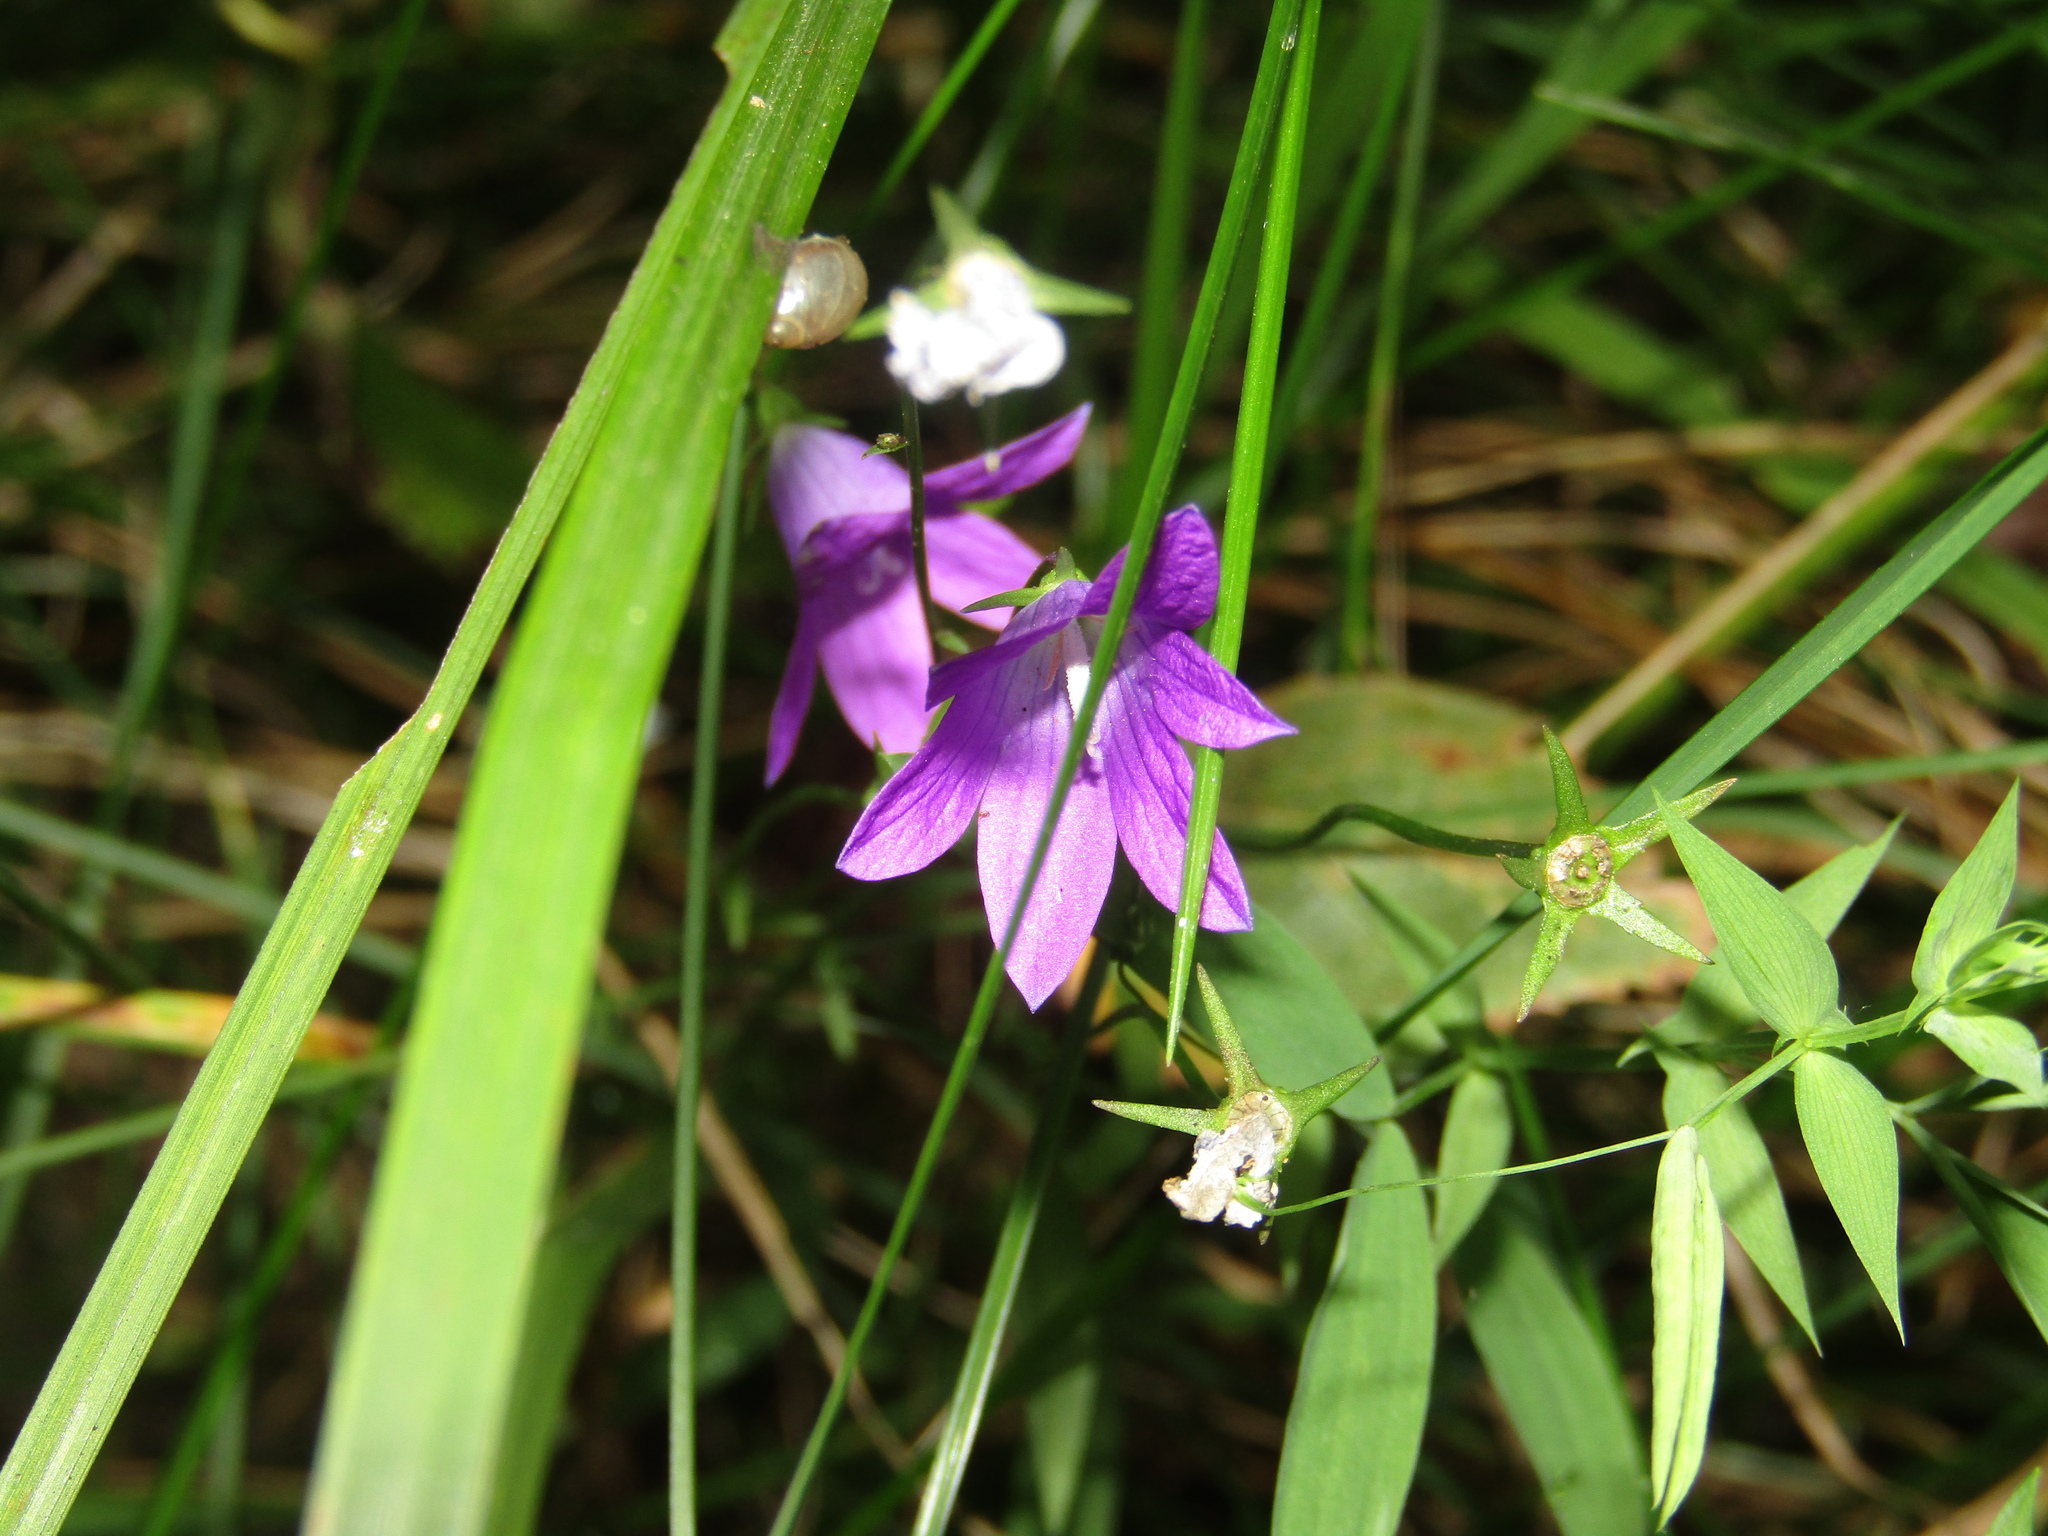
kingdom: Plantae
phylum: Tracheophyta
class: Magnoliopsida
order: Asterales
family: Campanulaceae
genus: Campanula
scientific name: Campanula patula
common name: Spreading bellflower
